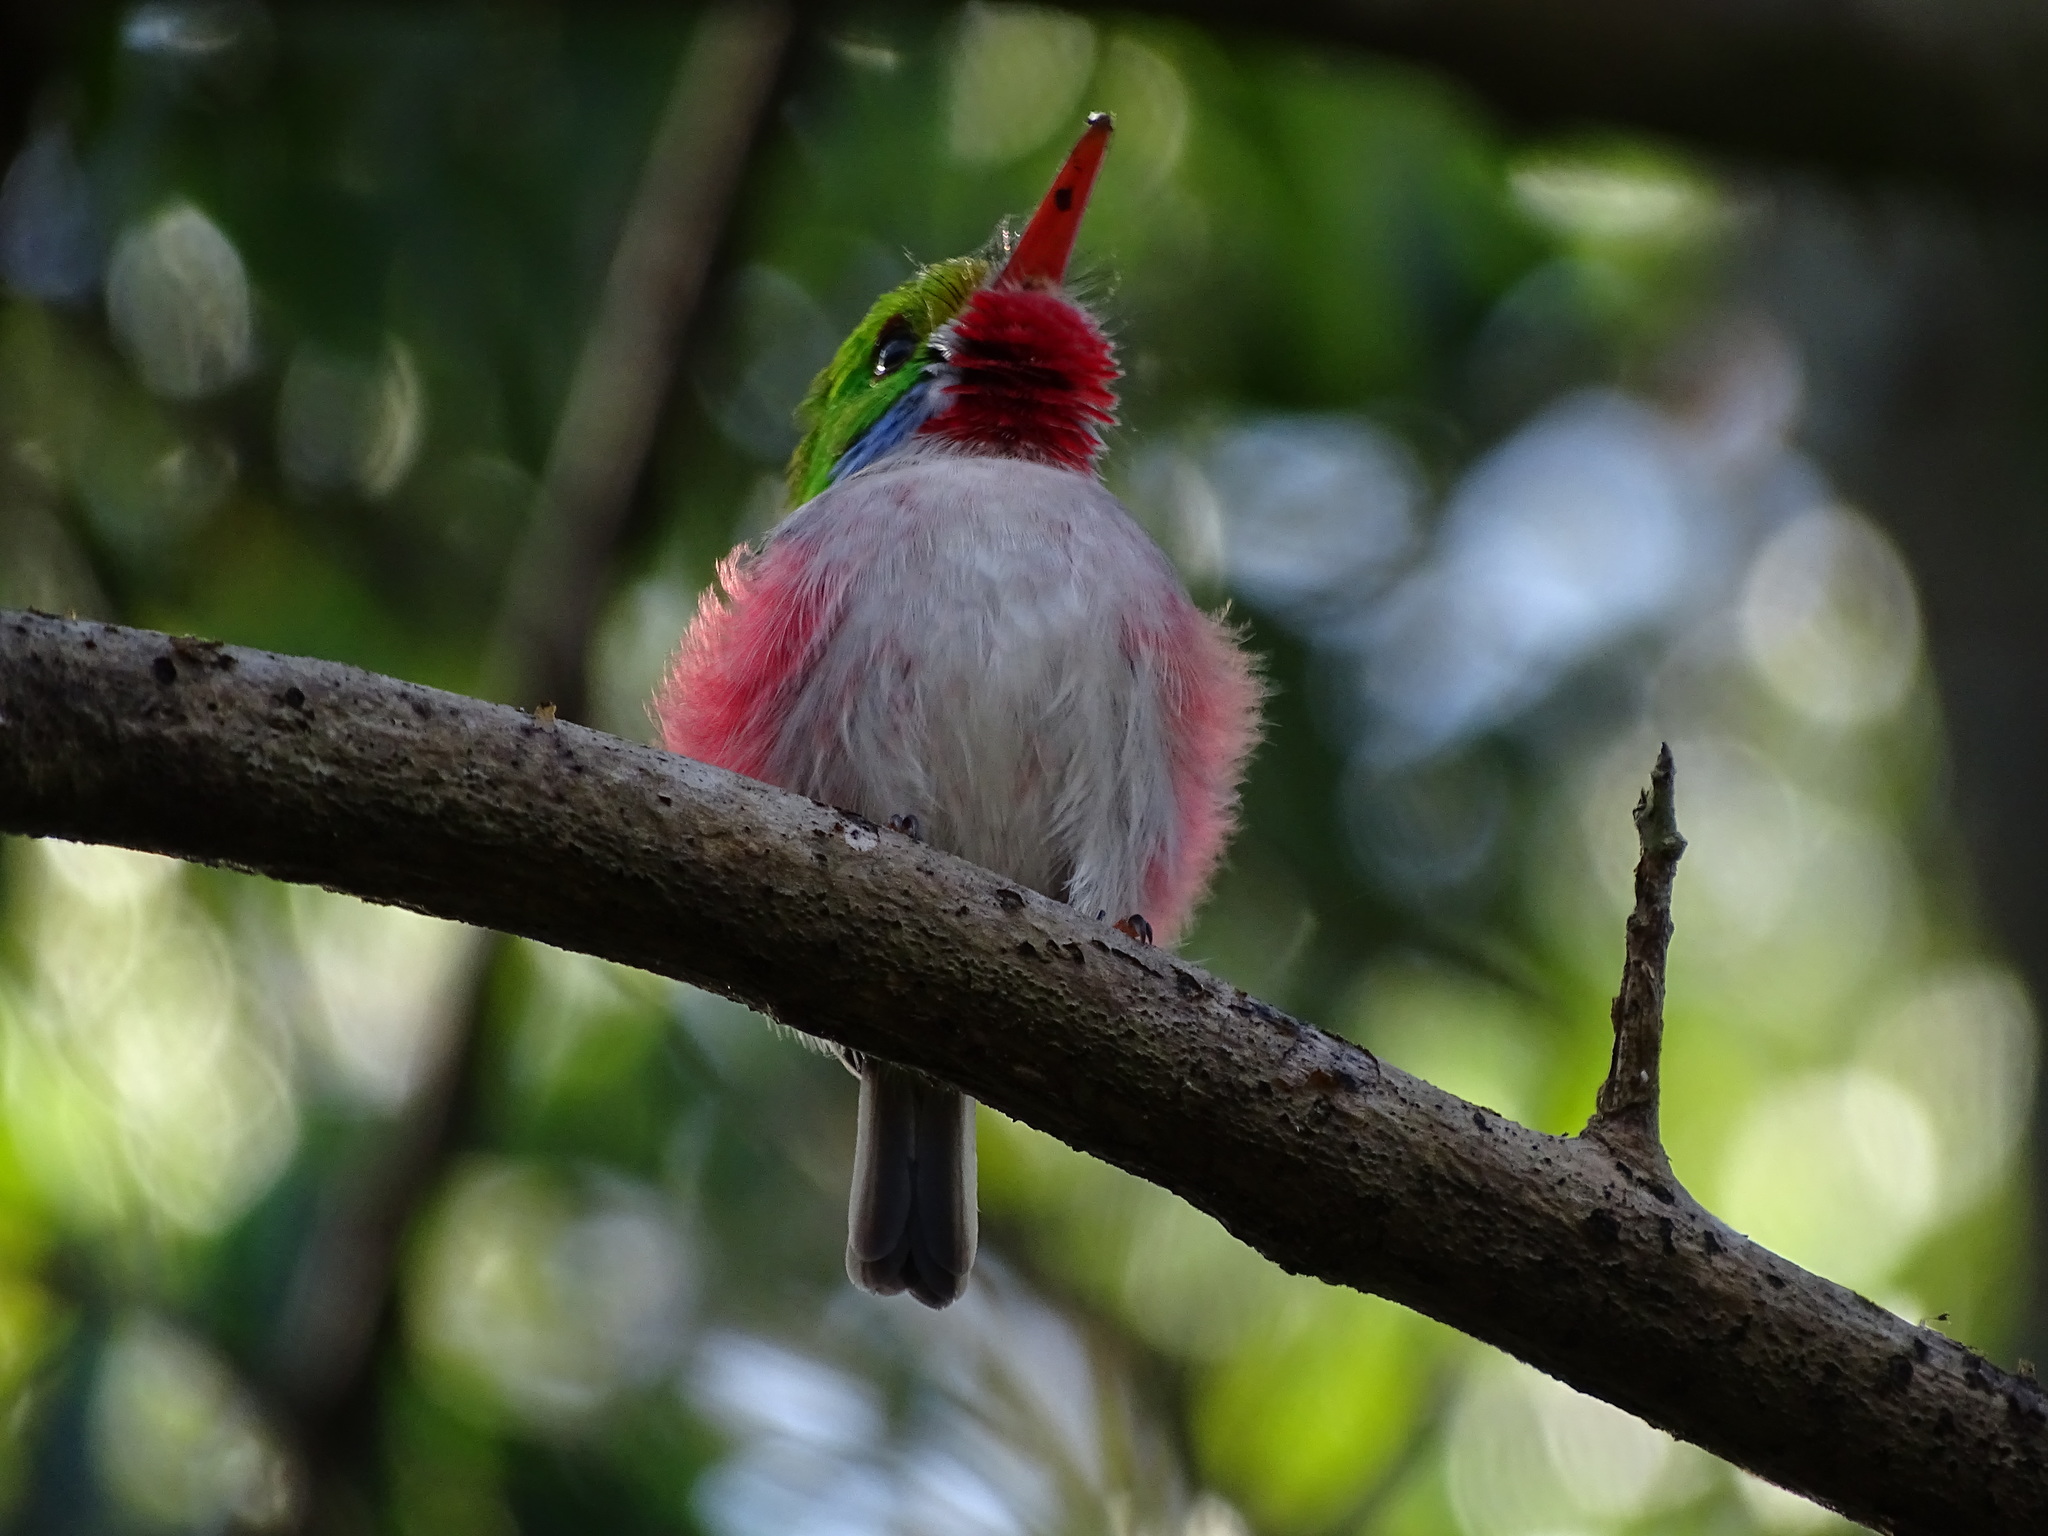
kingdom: Animalia
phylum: Chordata
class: Aves
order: Coraciiformes
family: Todidae
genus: Todus
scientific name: Todus multicolor
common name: Cuban tody
